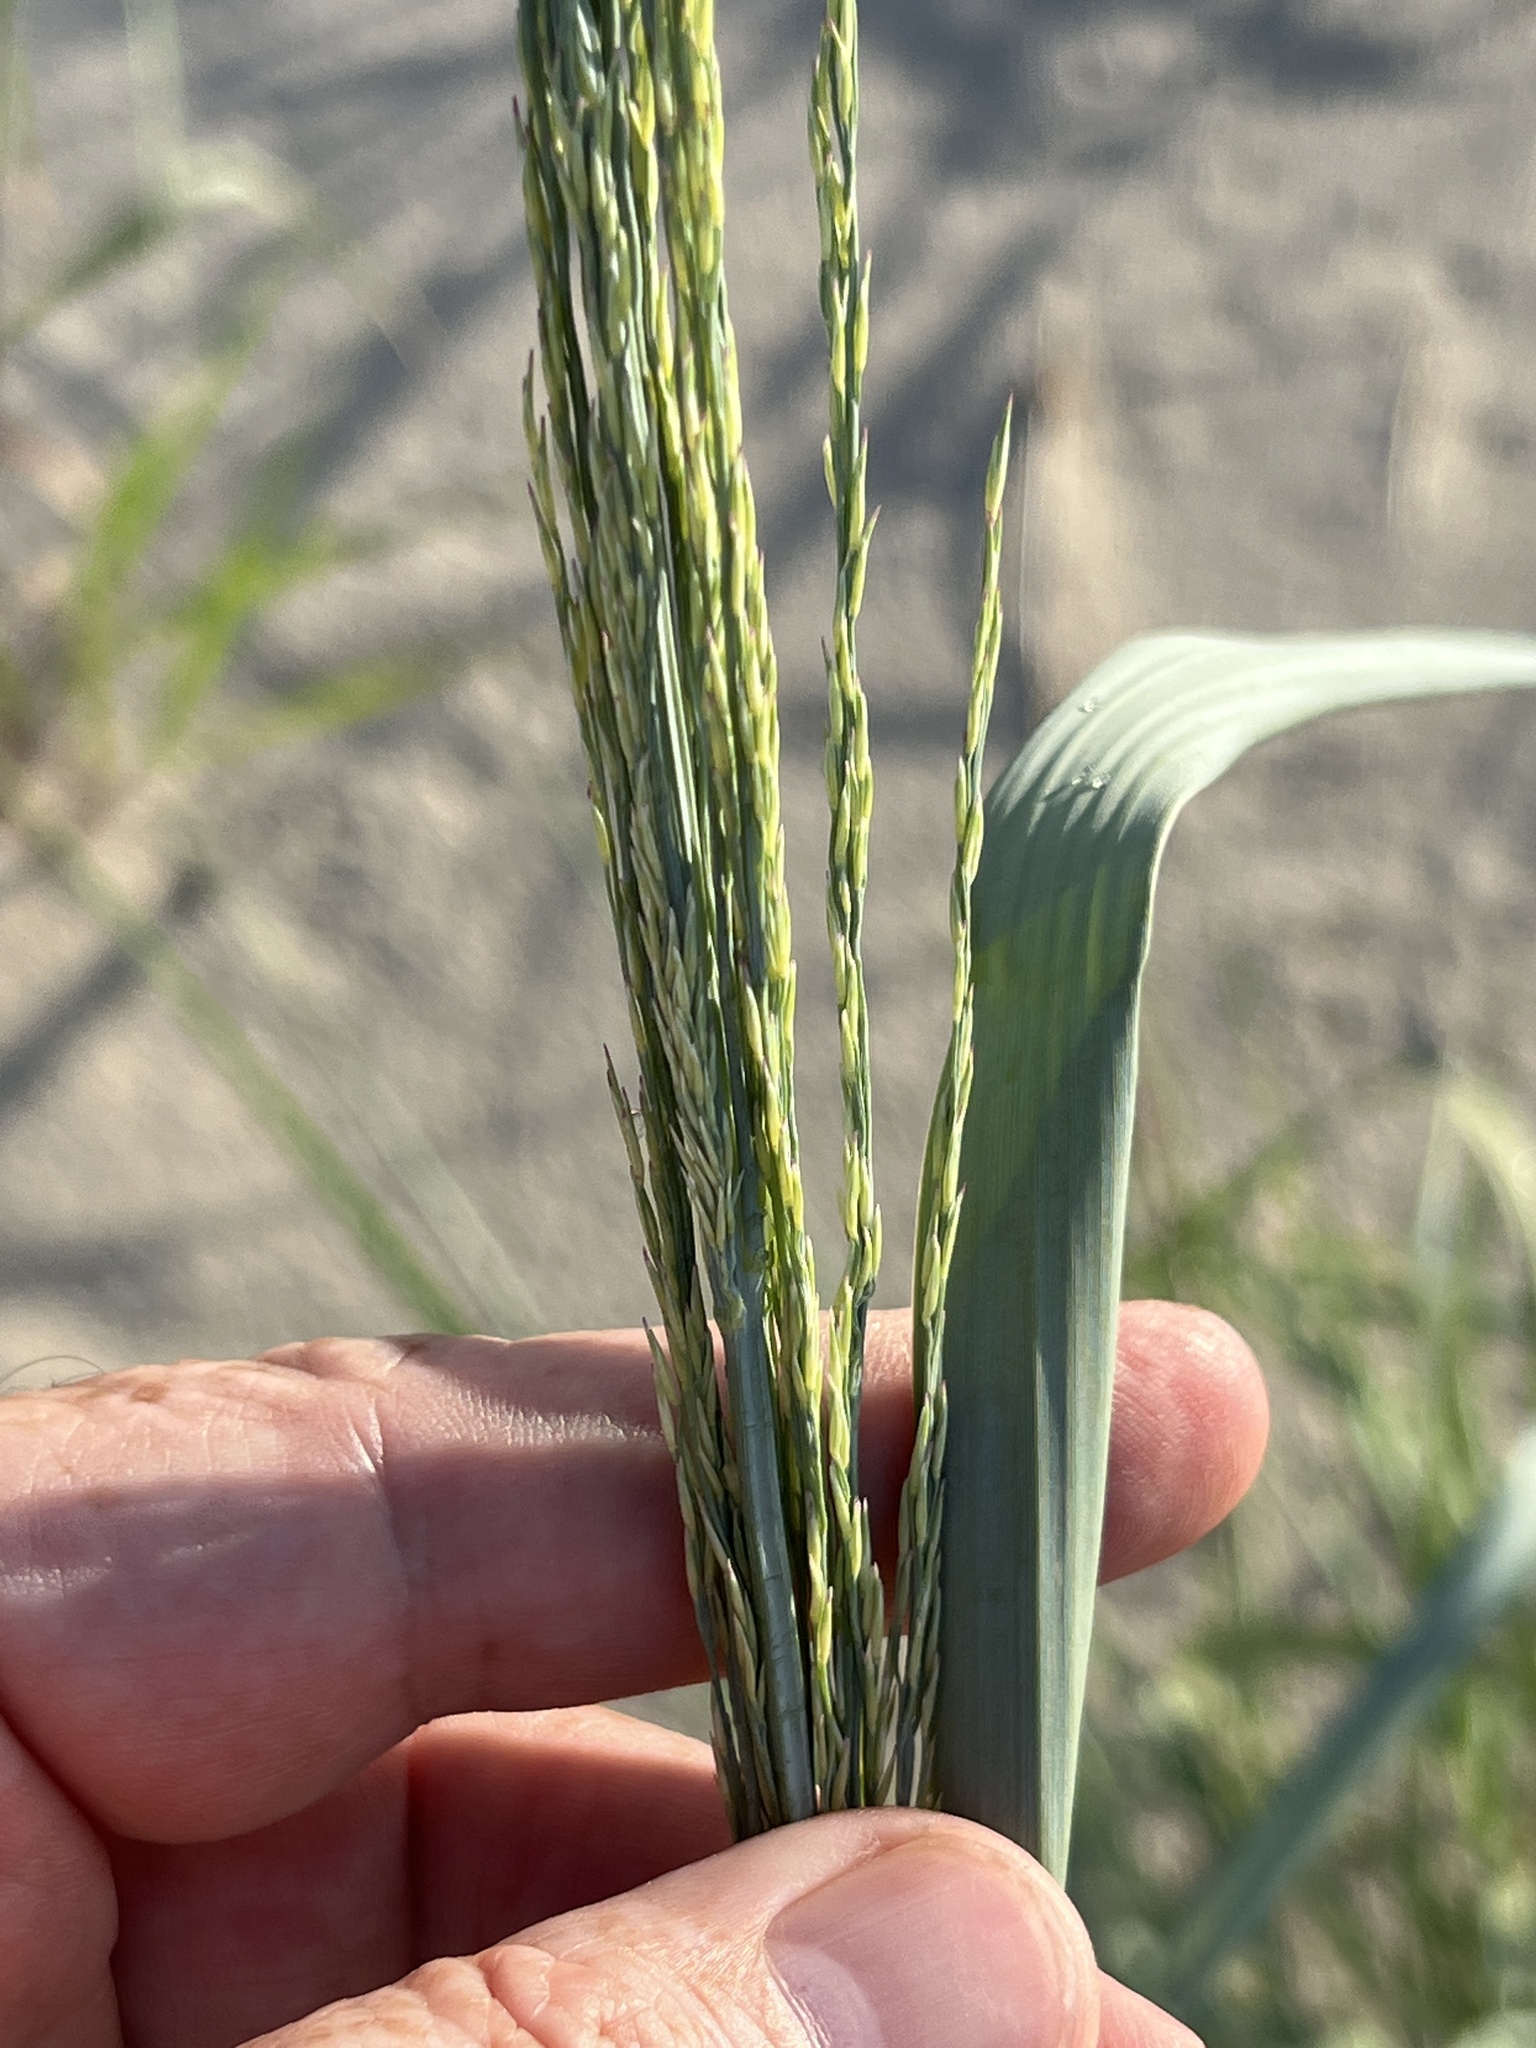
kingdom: Plantae
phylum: Tracheophyta
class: Liliopsida
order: Poales
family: Poaceae
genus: Panicum
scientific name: Panicum amarum
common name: Bitter panicum
